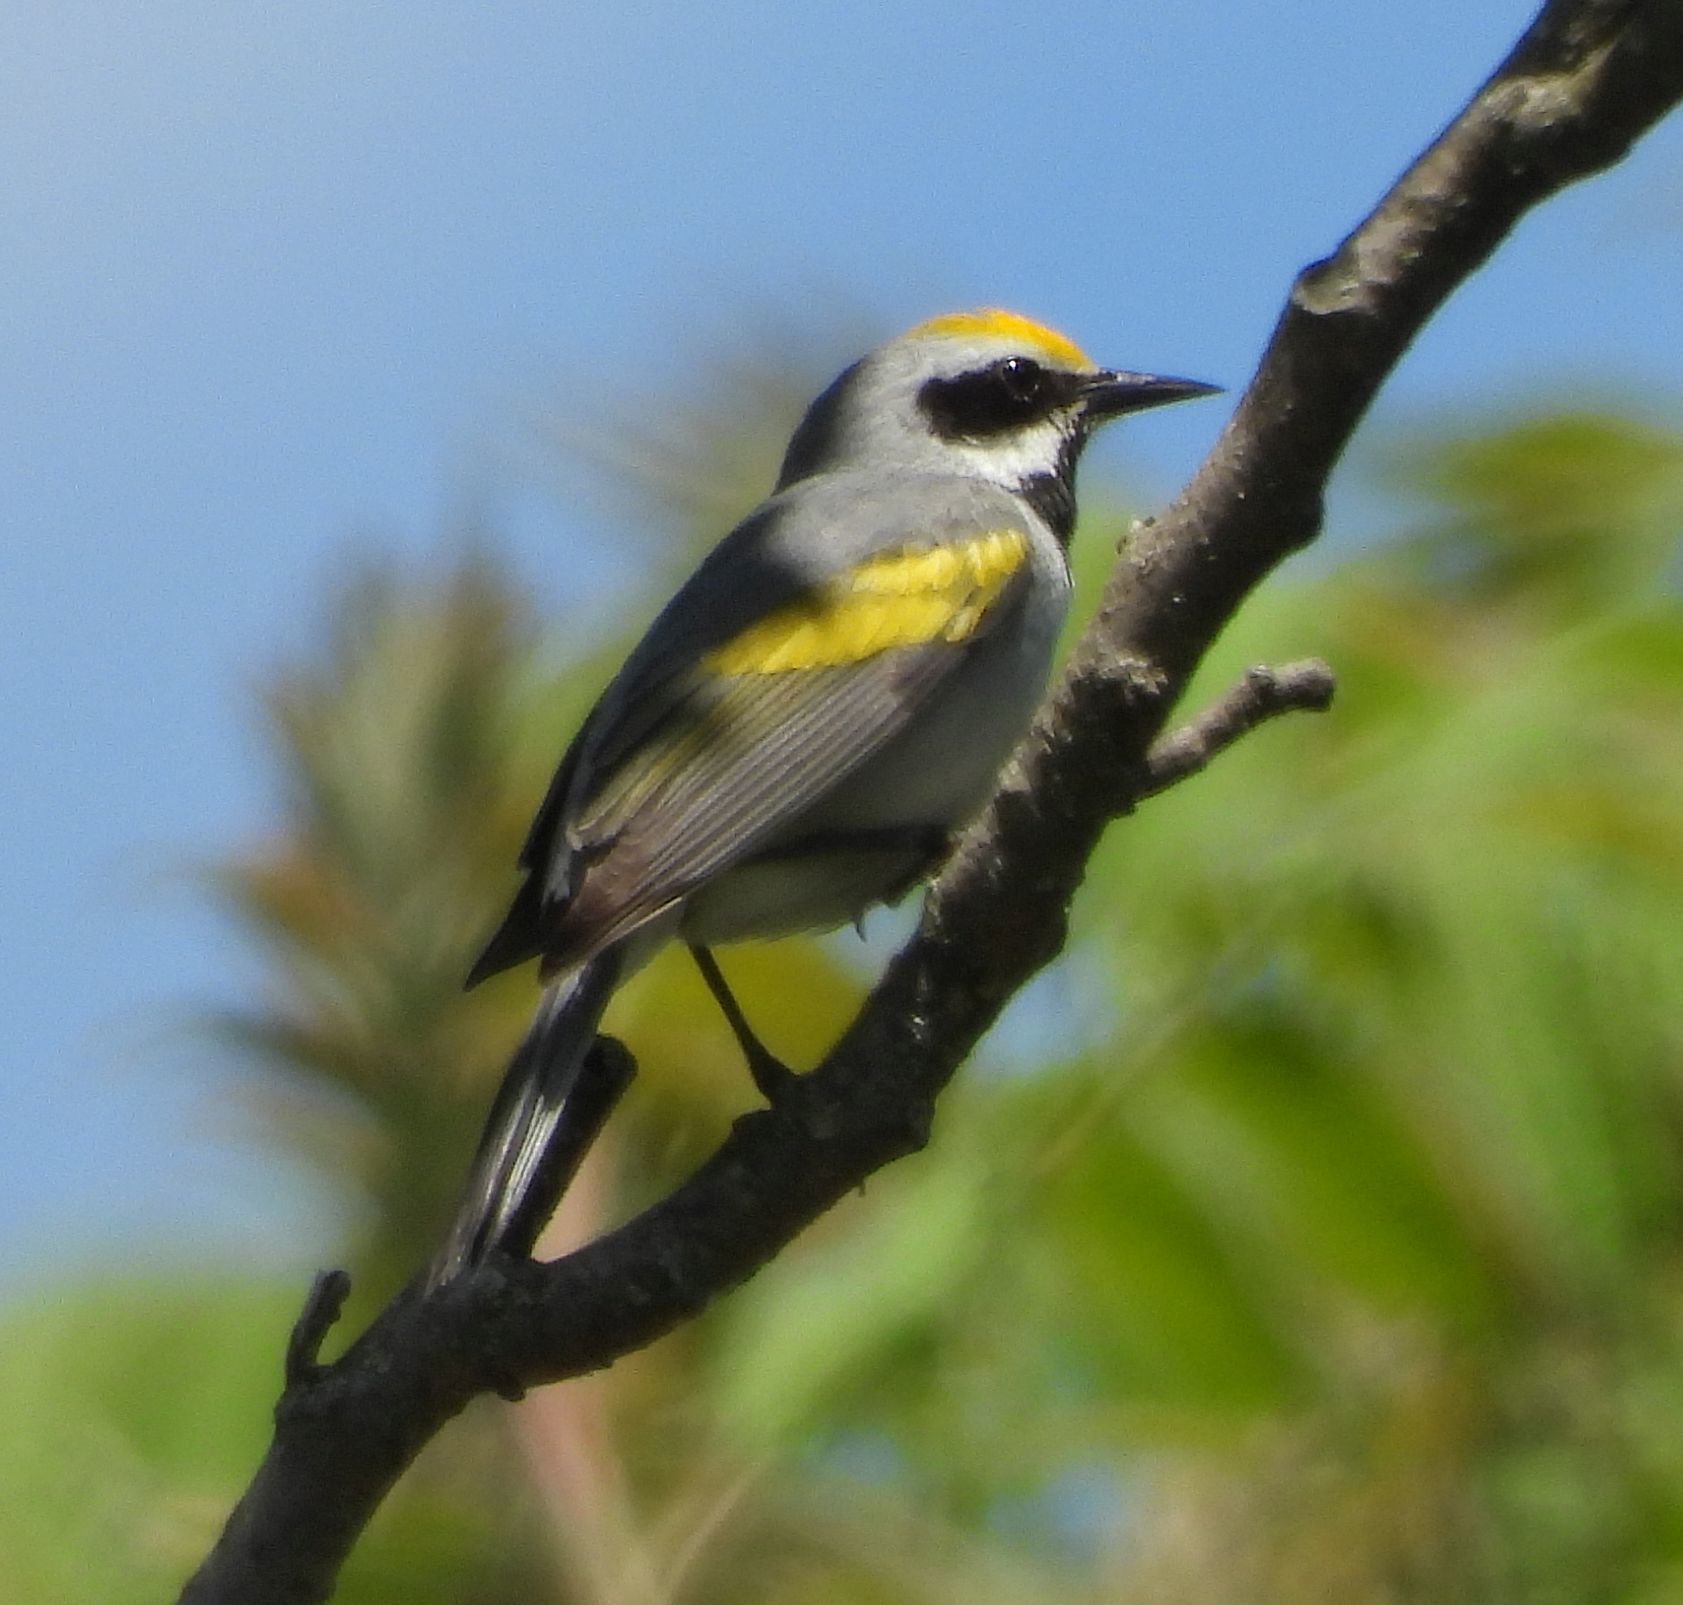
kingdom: Animalia
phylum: Chordata
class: Aves
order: Passeriformes
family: Parulidae
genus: Vermivora
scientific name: Vermivora chrysoptera
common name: Golden-winged warbler
